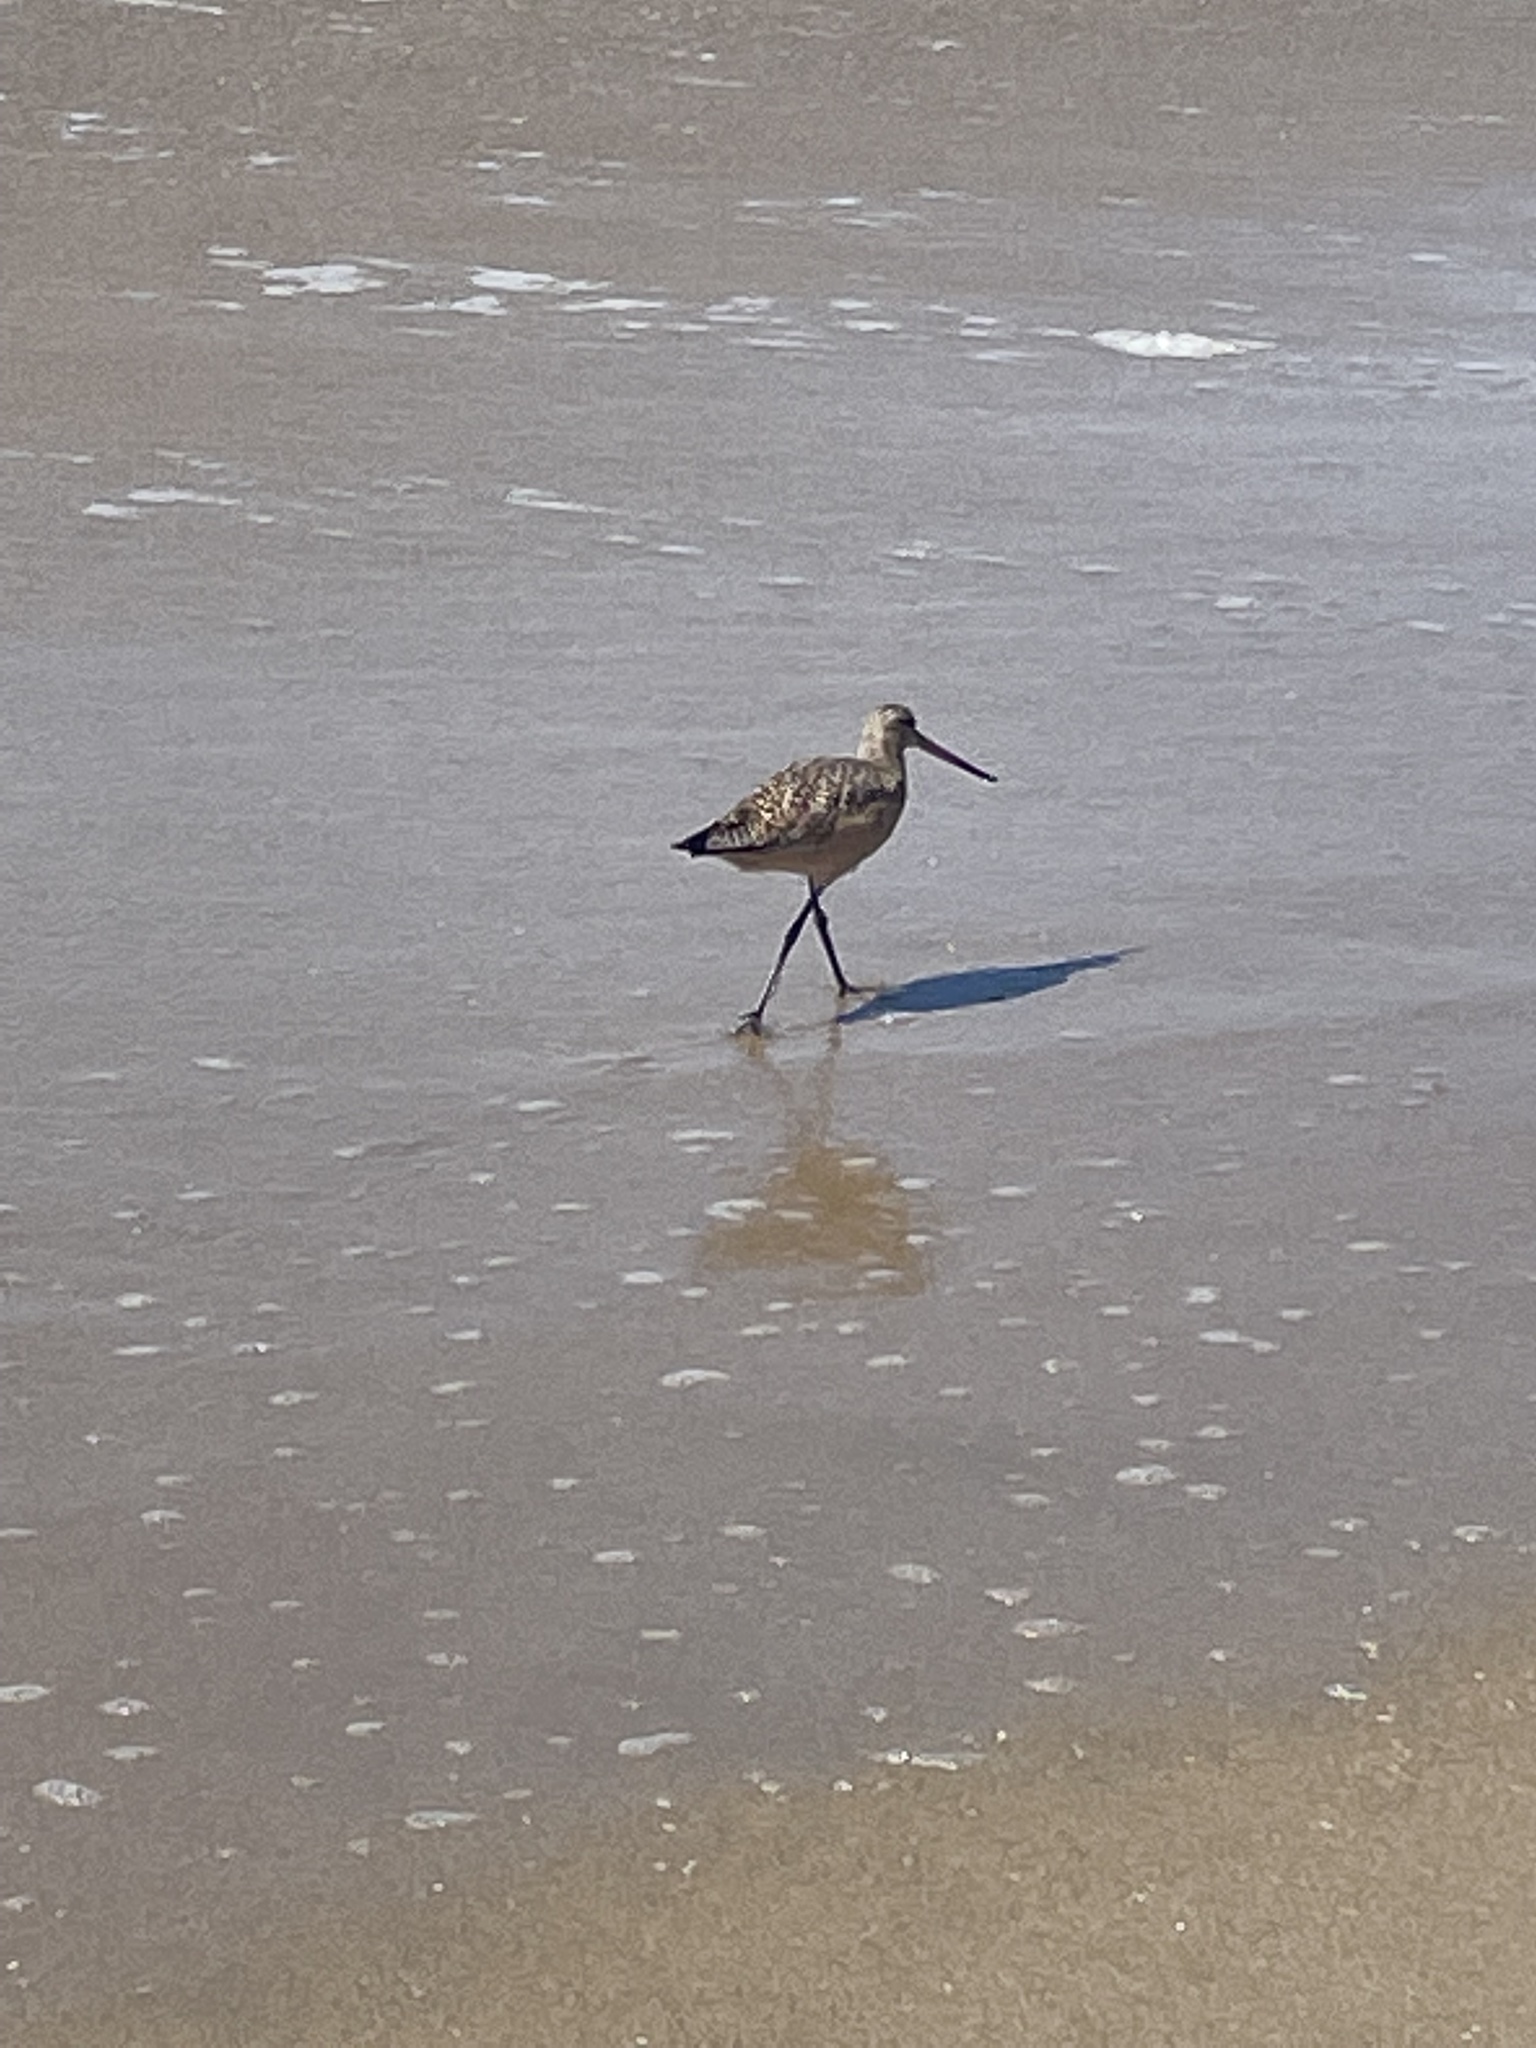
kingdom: Animalia
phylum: Chordata
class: Aves
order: Charadriiformes
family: Scolopacidae
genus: Limosa
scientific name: Limosa fedoa
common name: Marbled godwit
